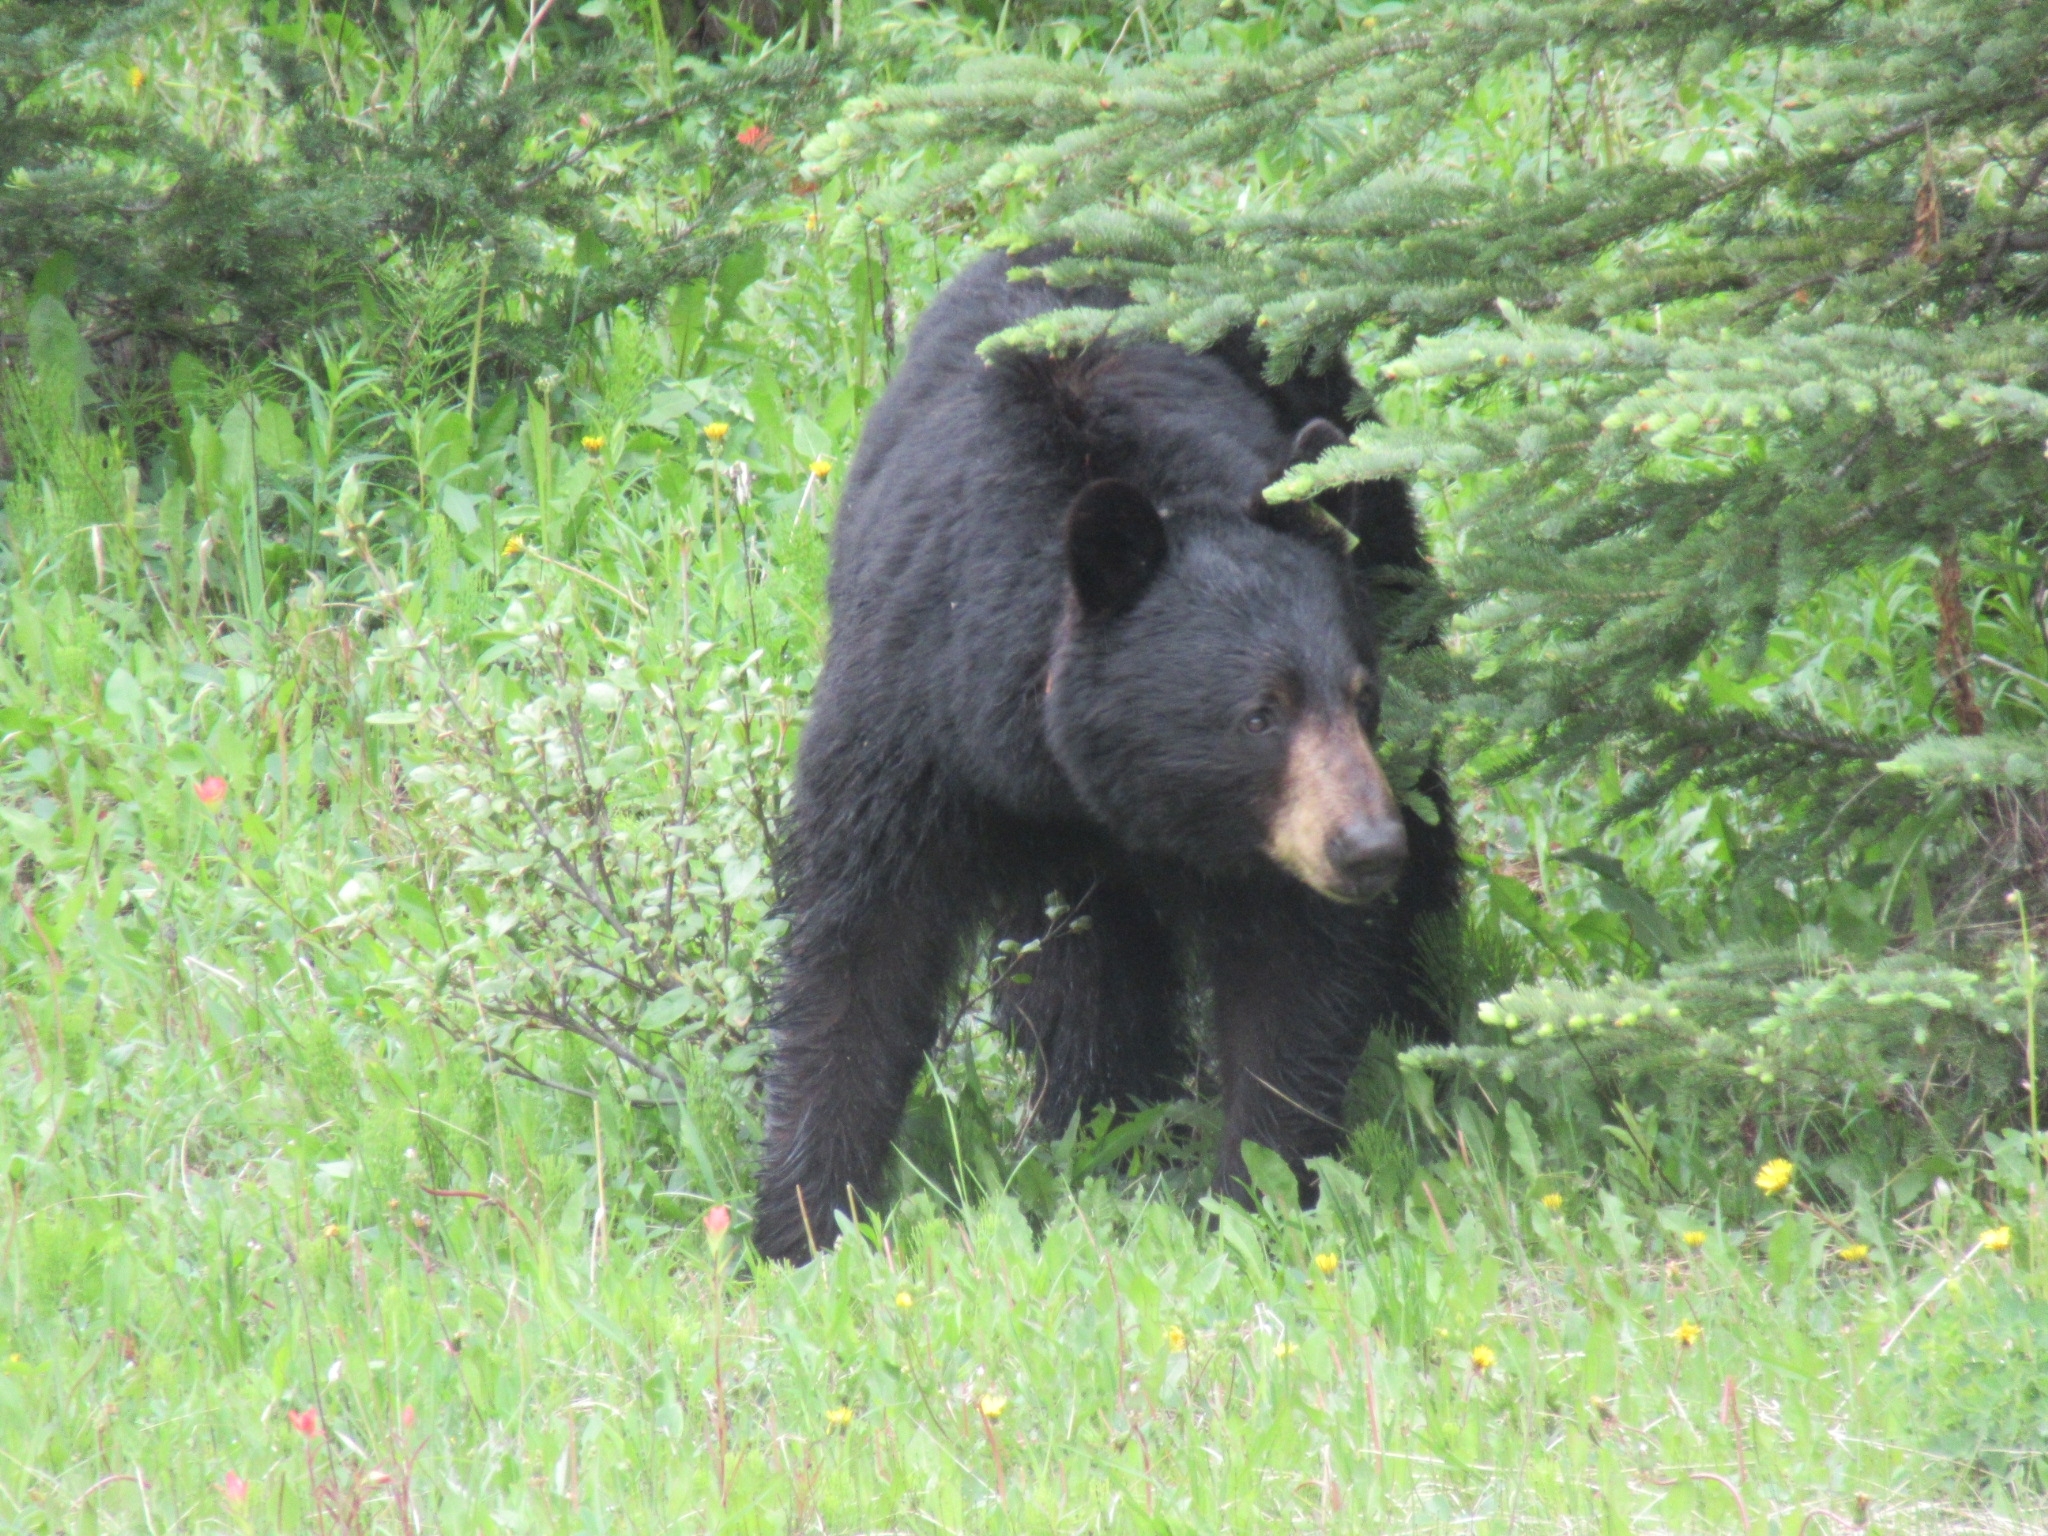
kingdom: Animalia
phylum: Chordata
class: Mammalia
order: Carnivora
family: Ursidae
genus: Ursus
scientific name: Ursus americanus
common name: American black bear
